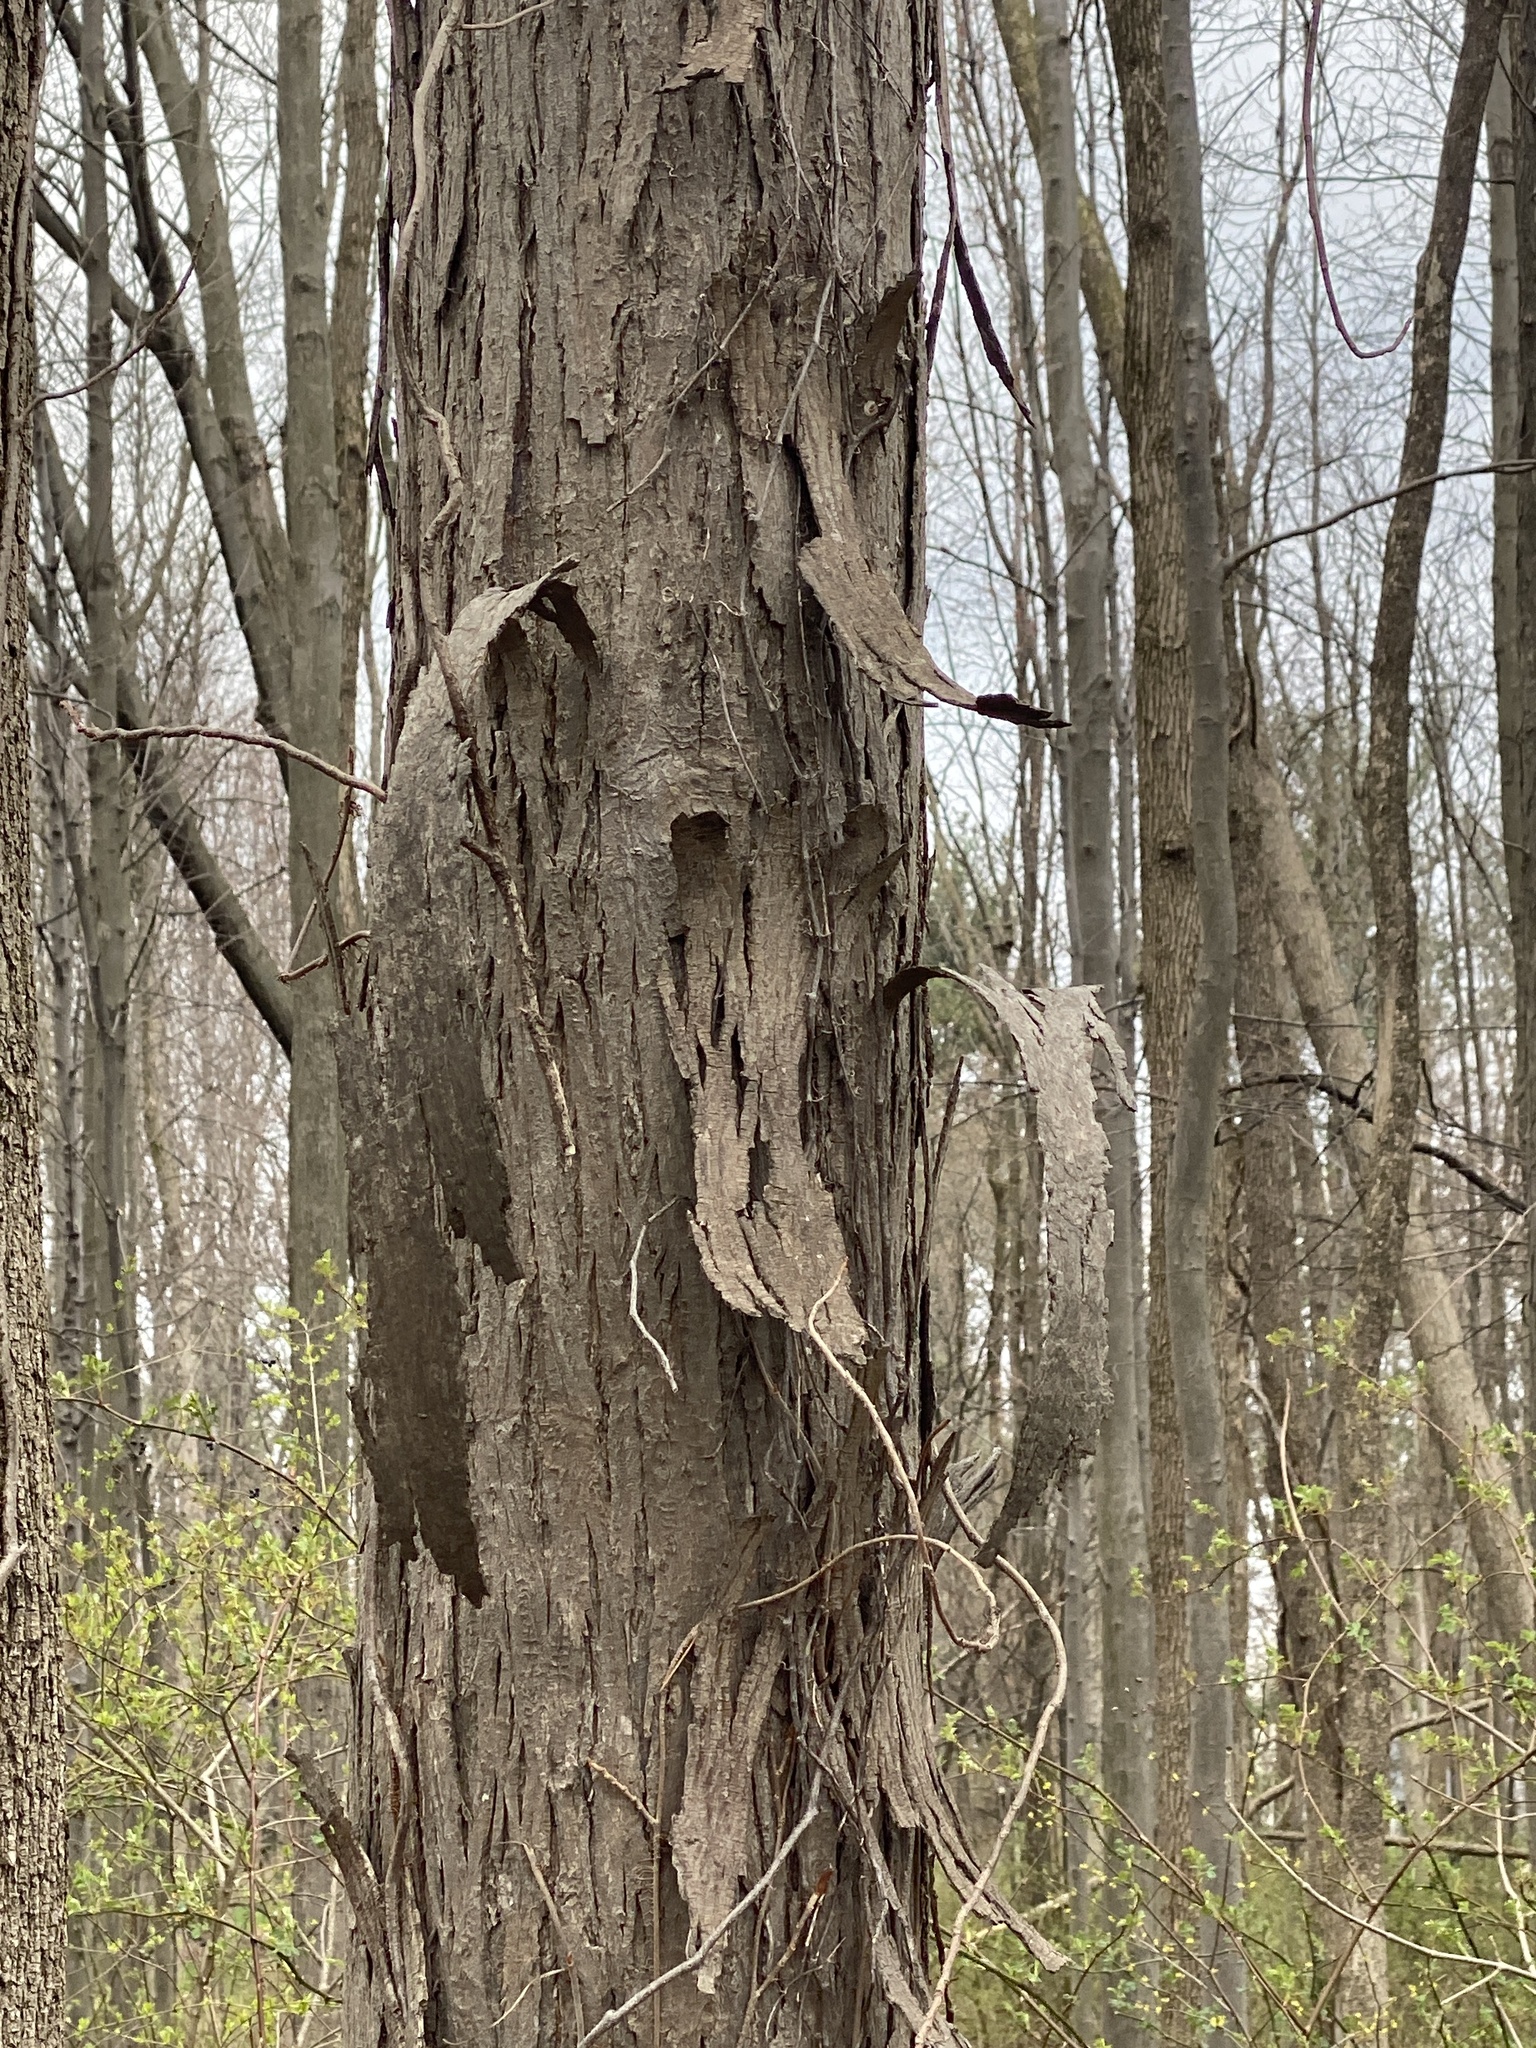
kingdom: Plantae
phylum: Tracheophyta
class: Magnoliopsida
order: Fagales
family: Juglandaceae
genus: Carya
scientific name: Carya ovata
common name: Shagbark hickory
